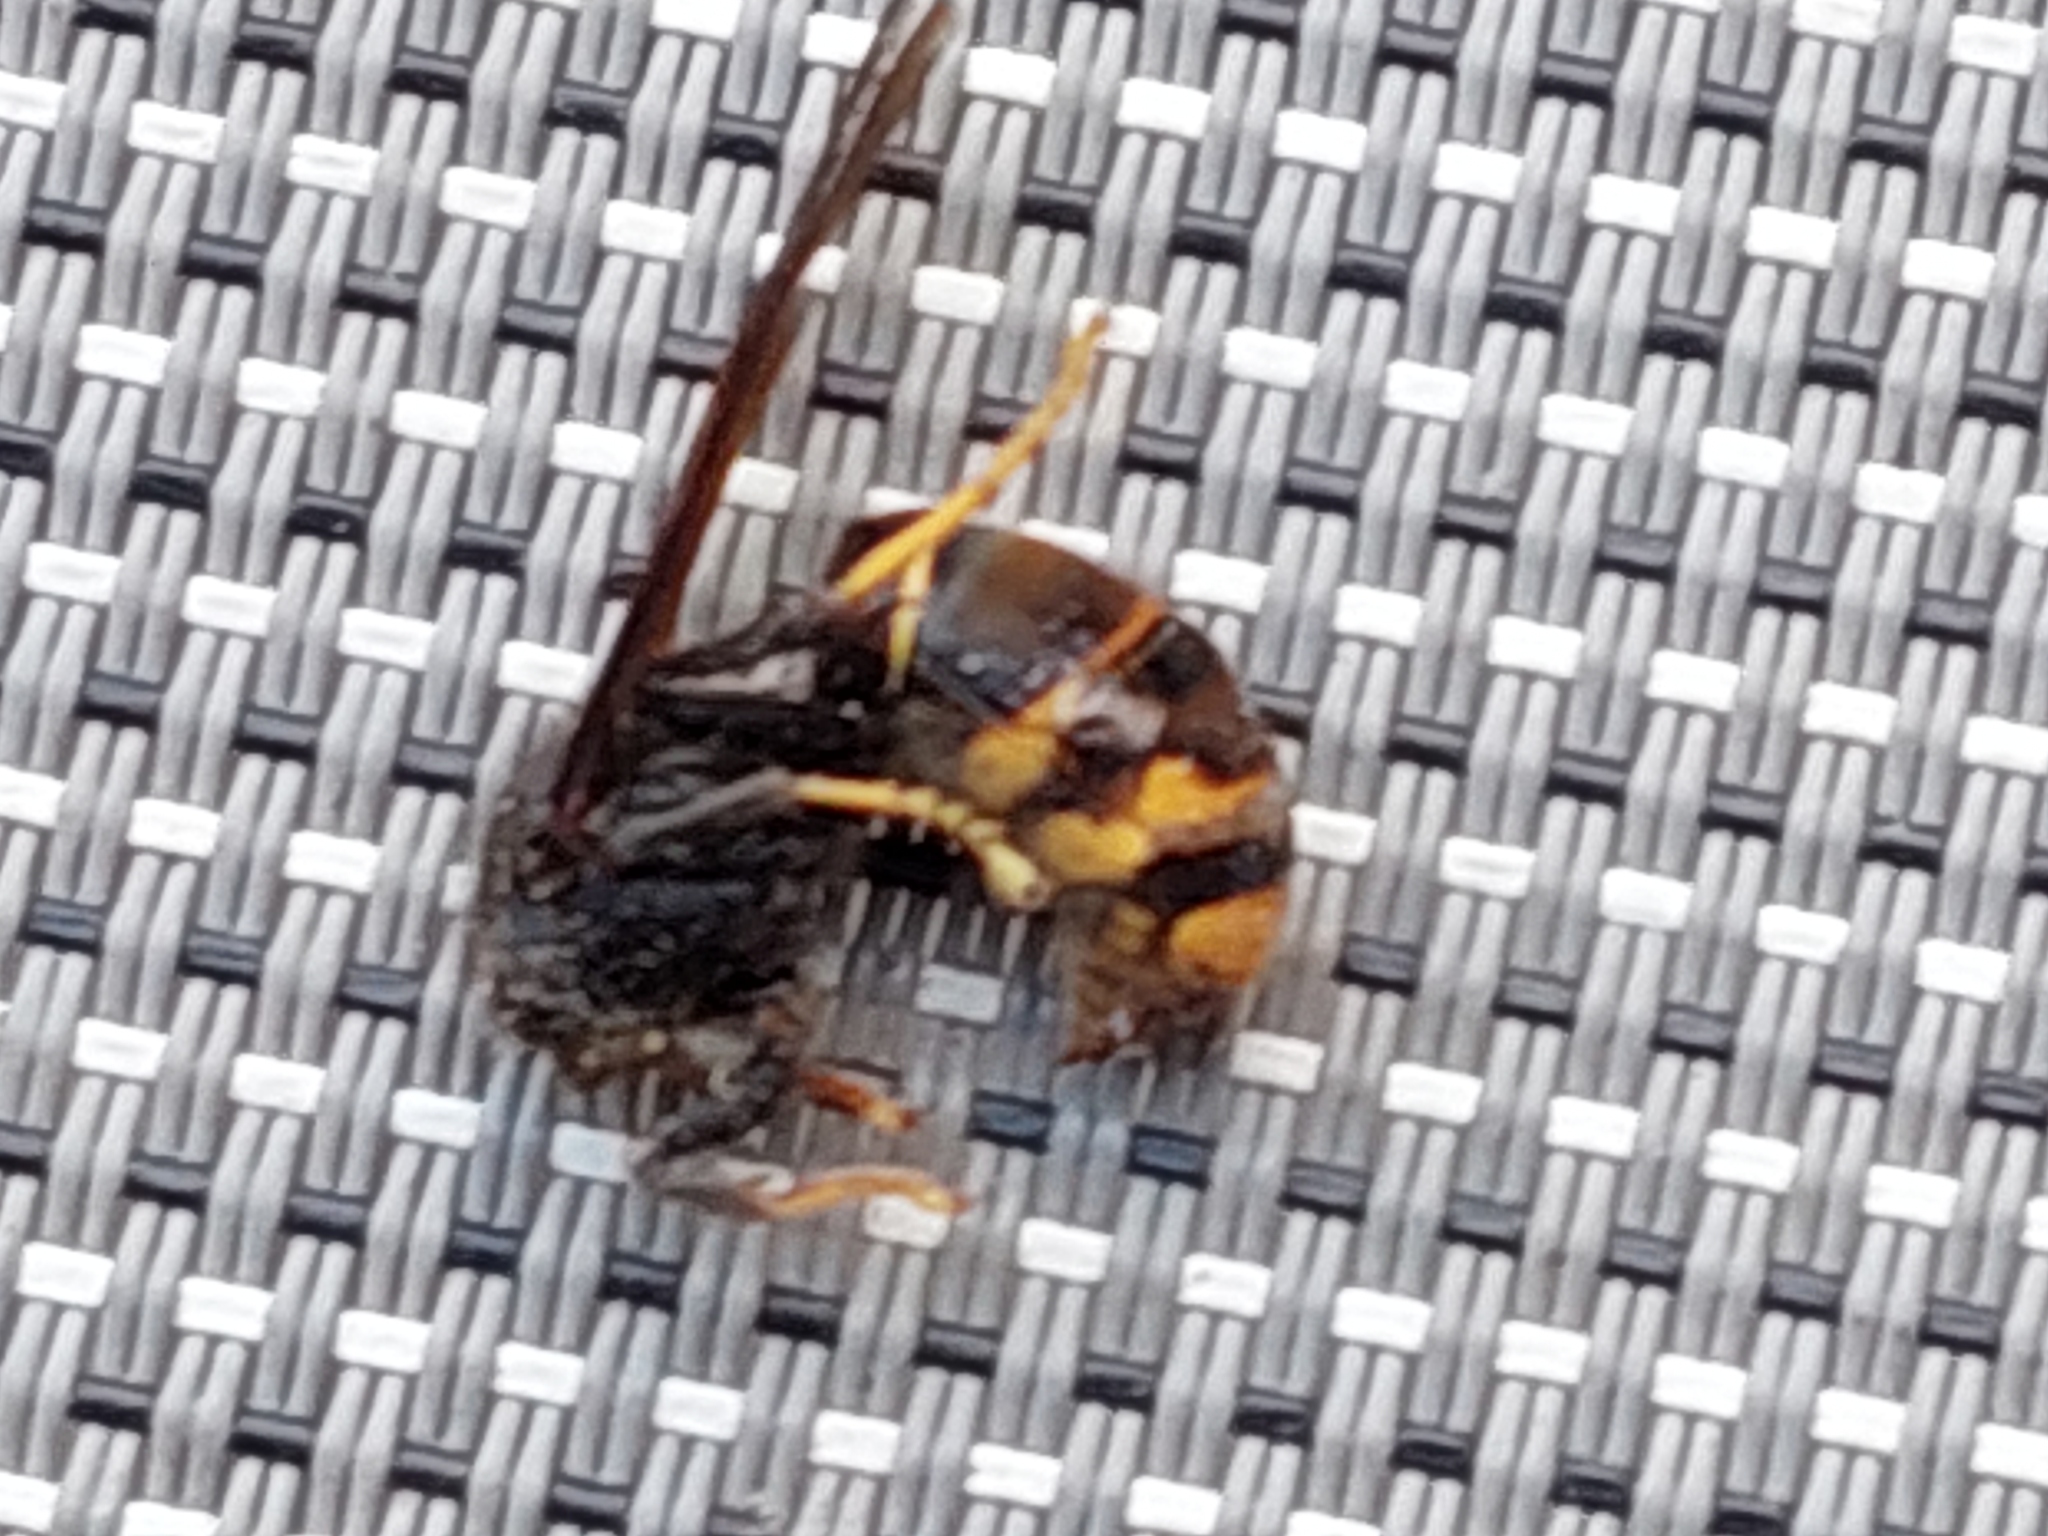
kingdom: Animalia
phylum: Arthropoda
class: Insecta
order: Hymenoptera
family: Vespidae
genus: Vespa
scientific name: Vespa velutina
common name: Asian hornet
